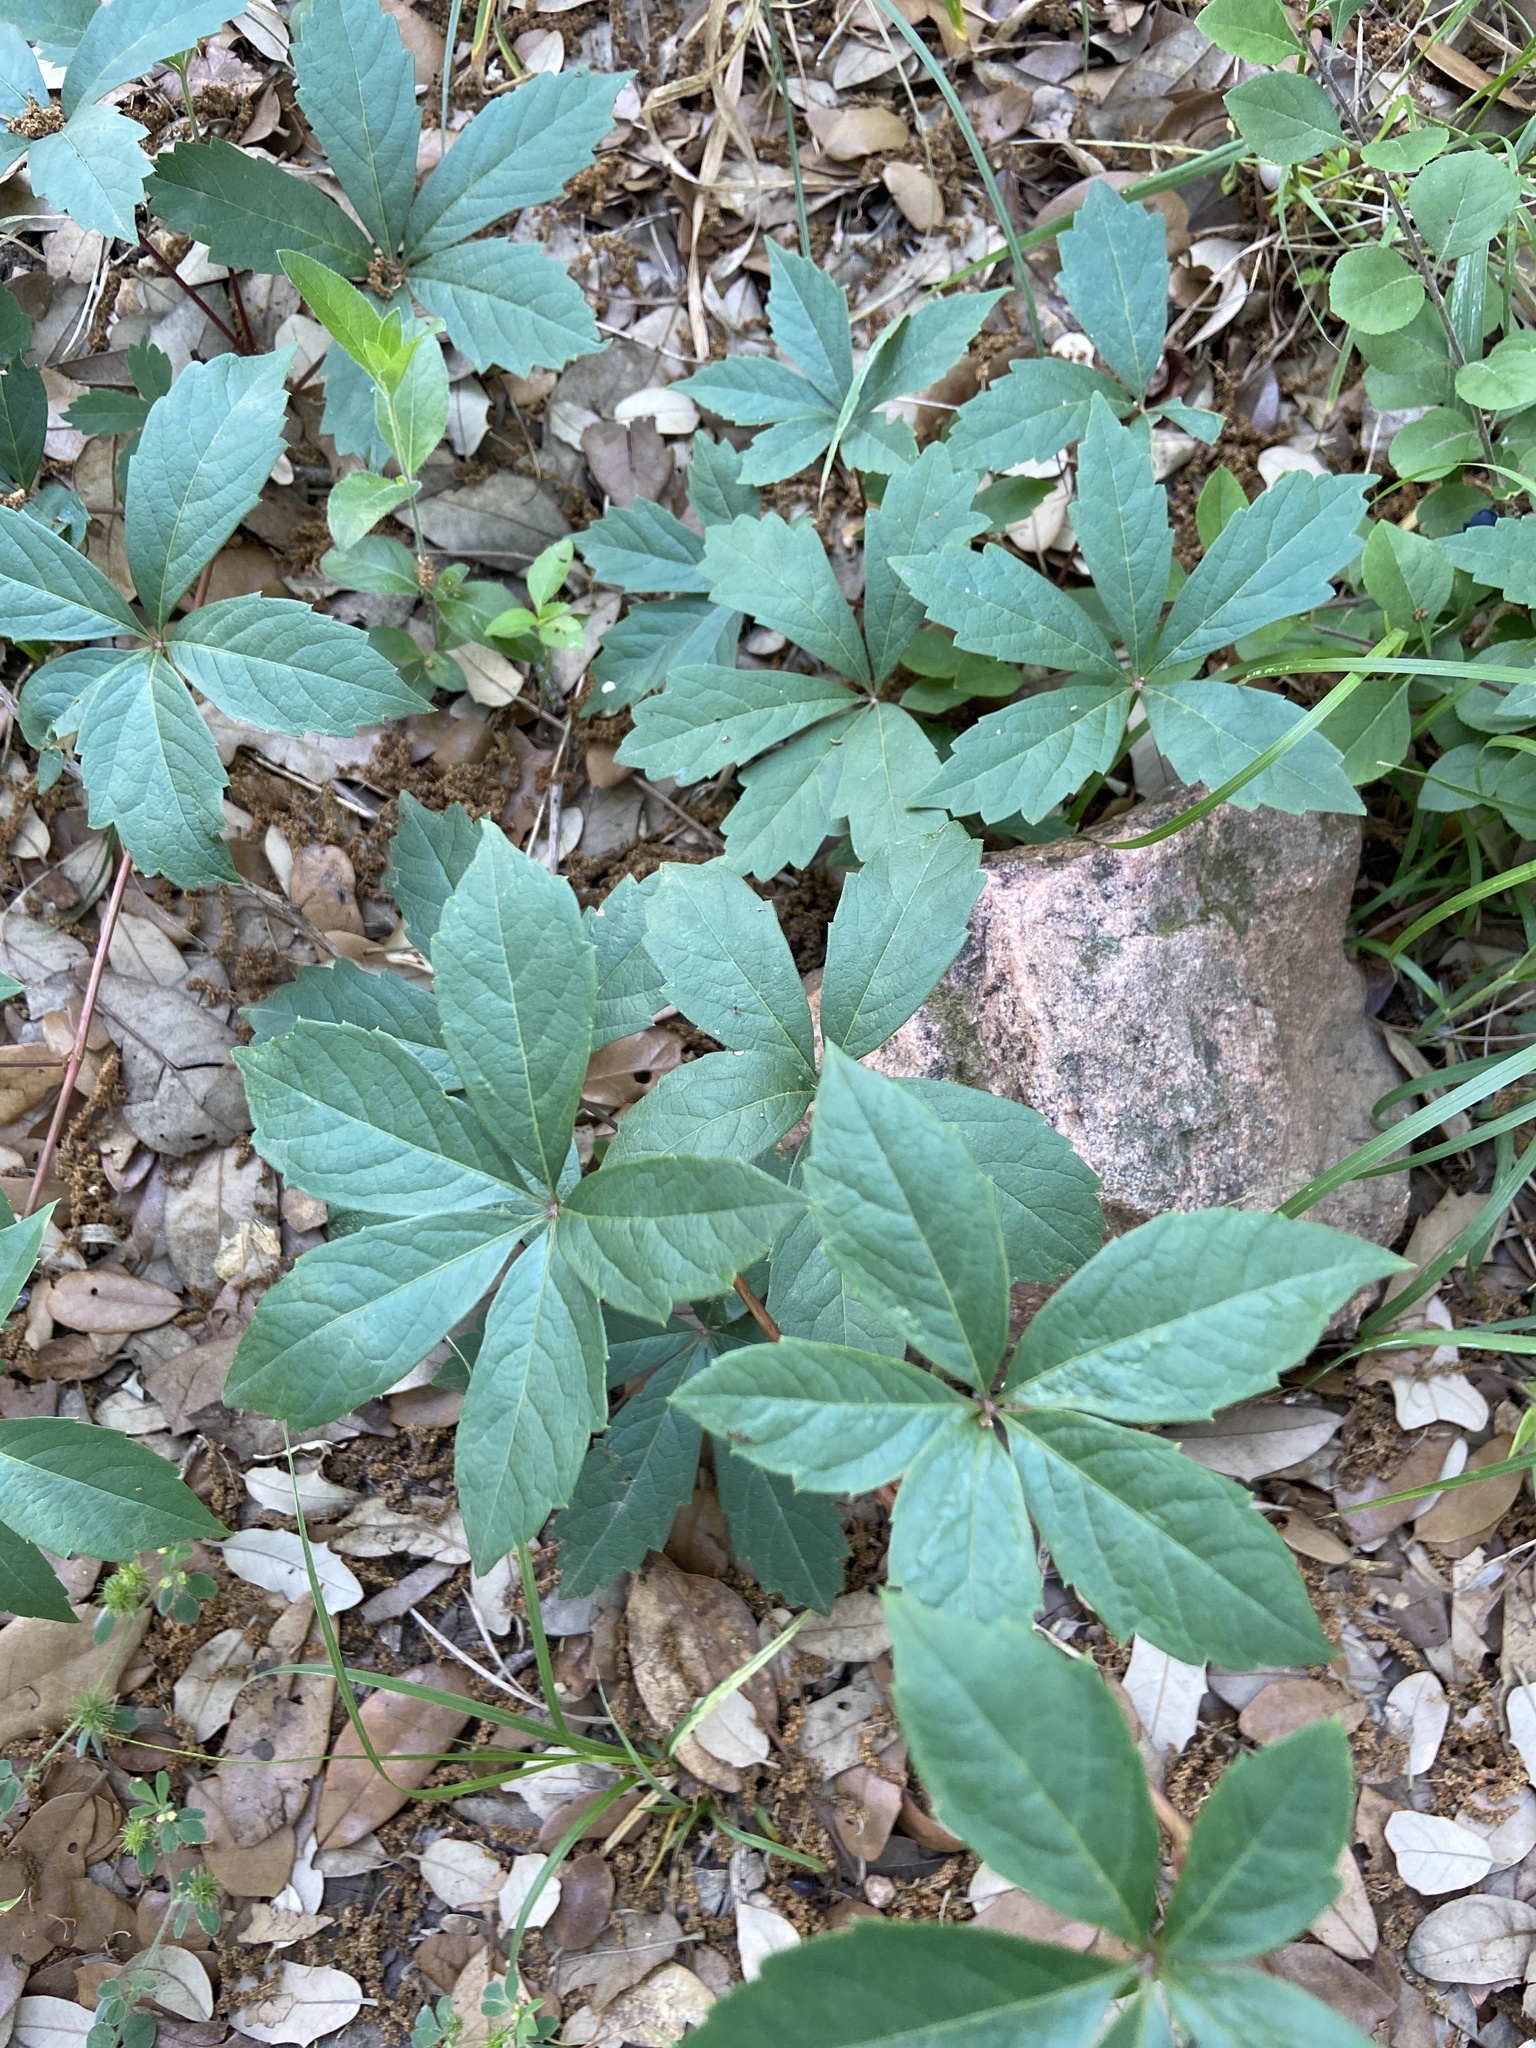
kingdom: Plantae
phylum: Tracheophyta
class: Magnoliopsida
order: Vitales
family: Vitaceae
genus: Parthenocissus
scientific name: Parthenocissus quinquefolia
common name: Virginia-creeper
